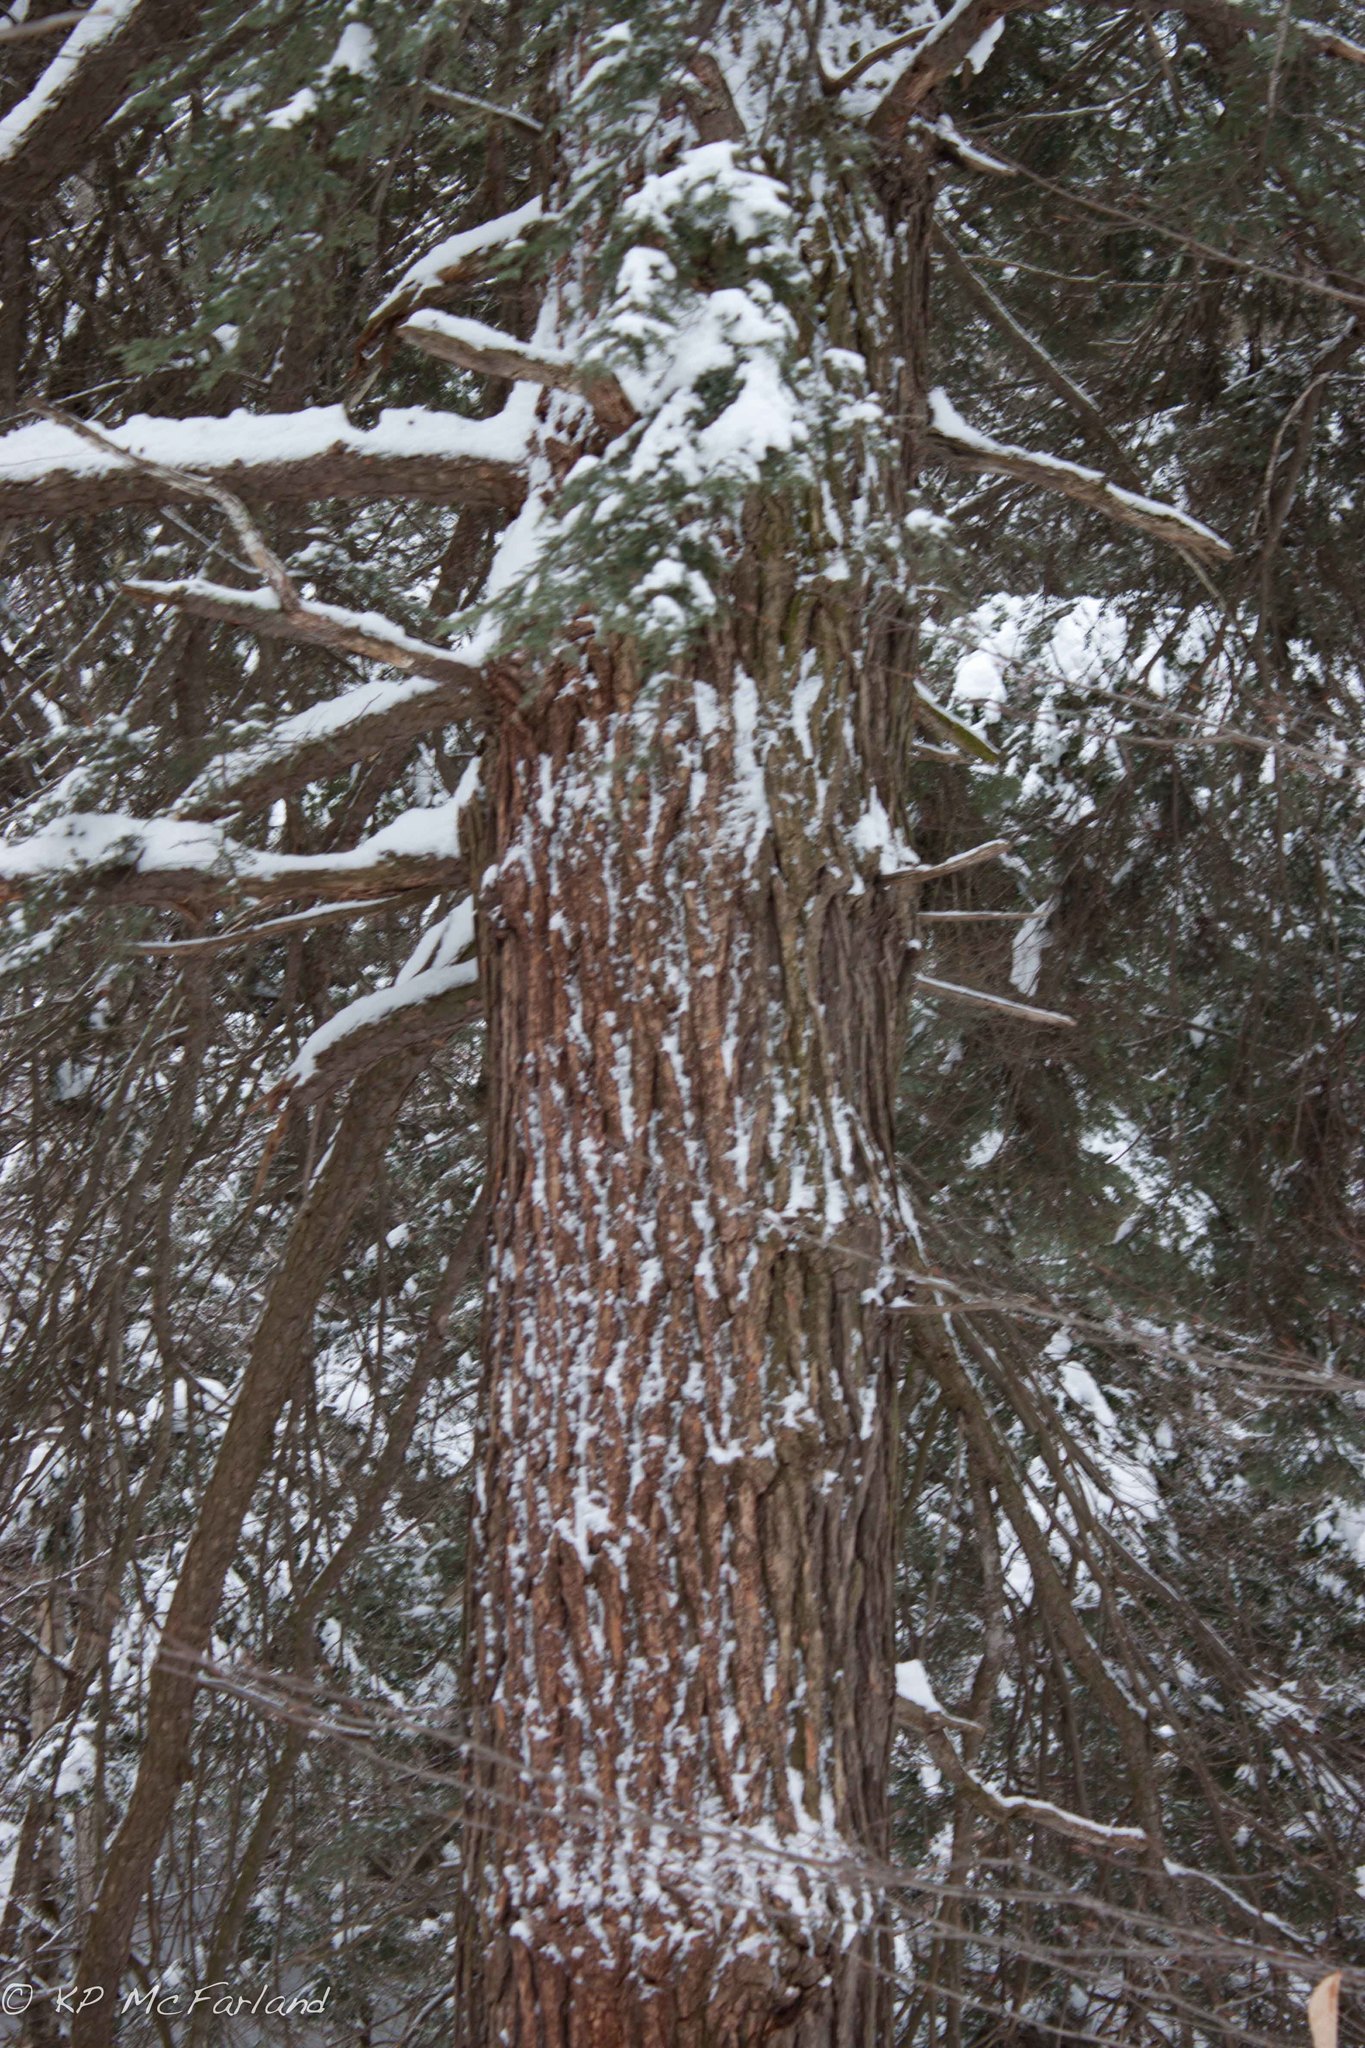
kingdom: Plantae
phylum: Tracheophyta
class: Pinopsida
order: Pinales
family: Pinaceae
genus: Tsuga
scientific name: Tsuga canadensis
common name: Eastern hemlock
